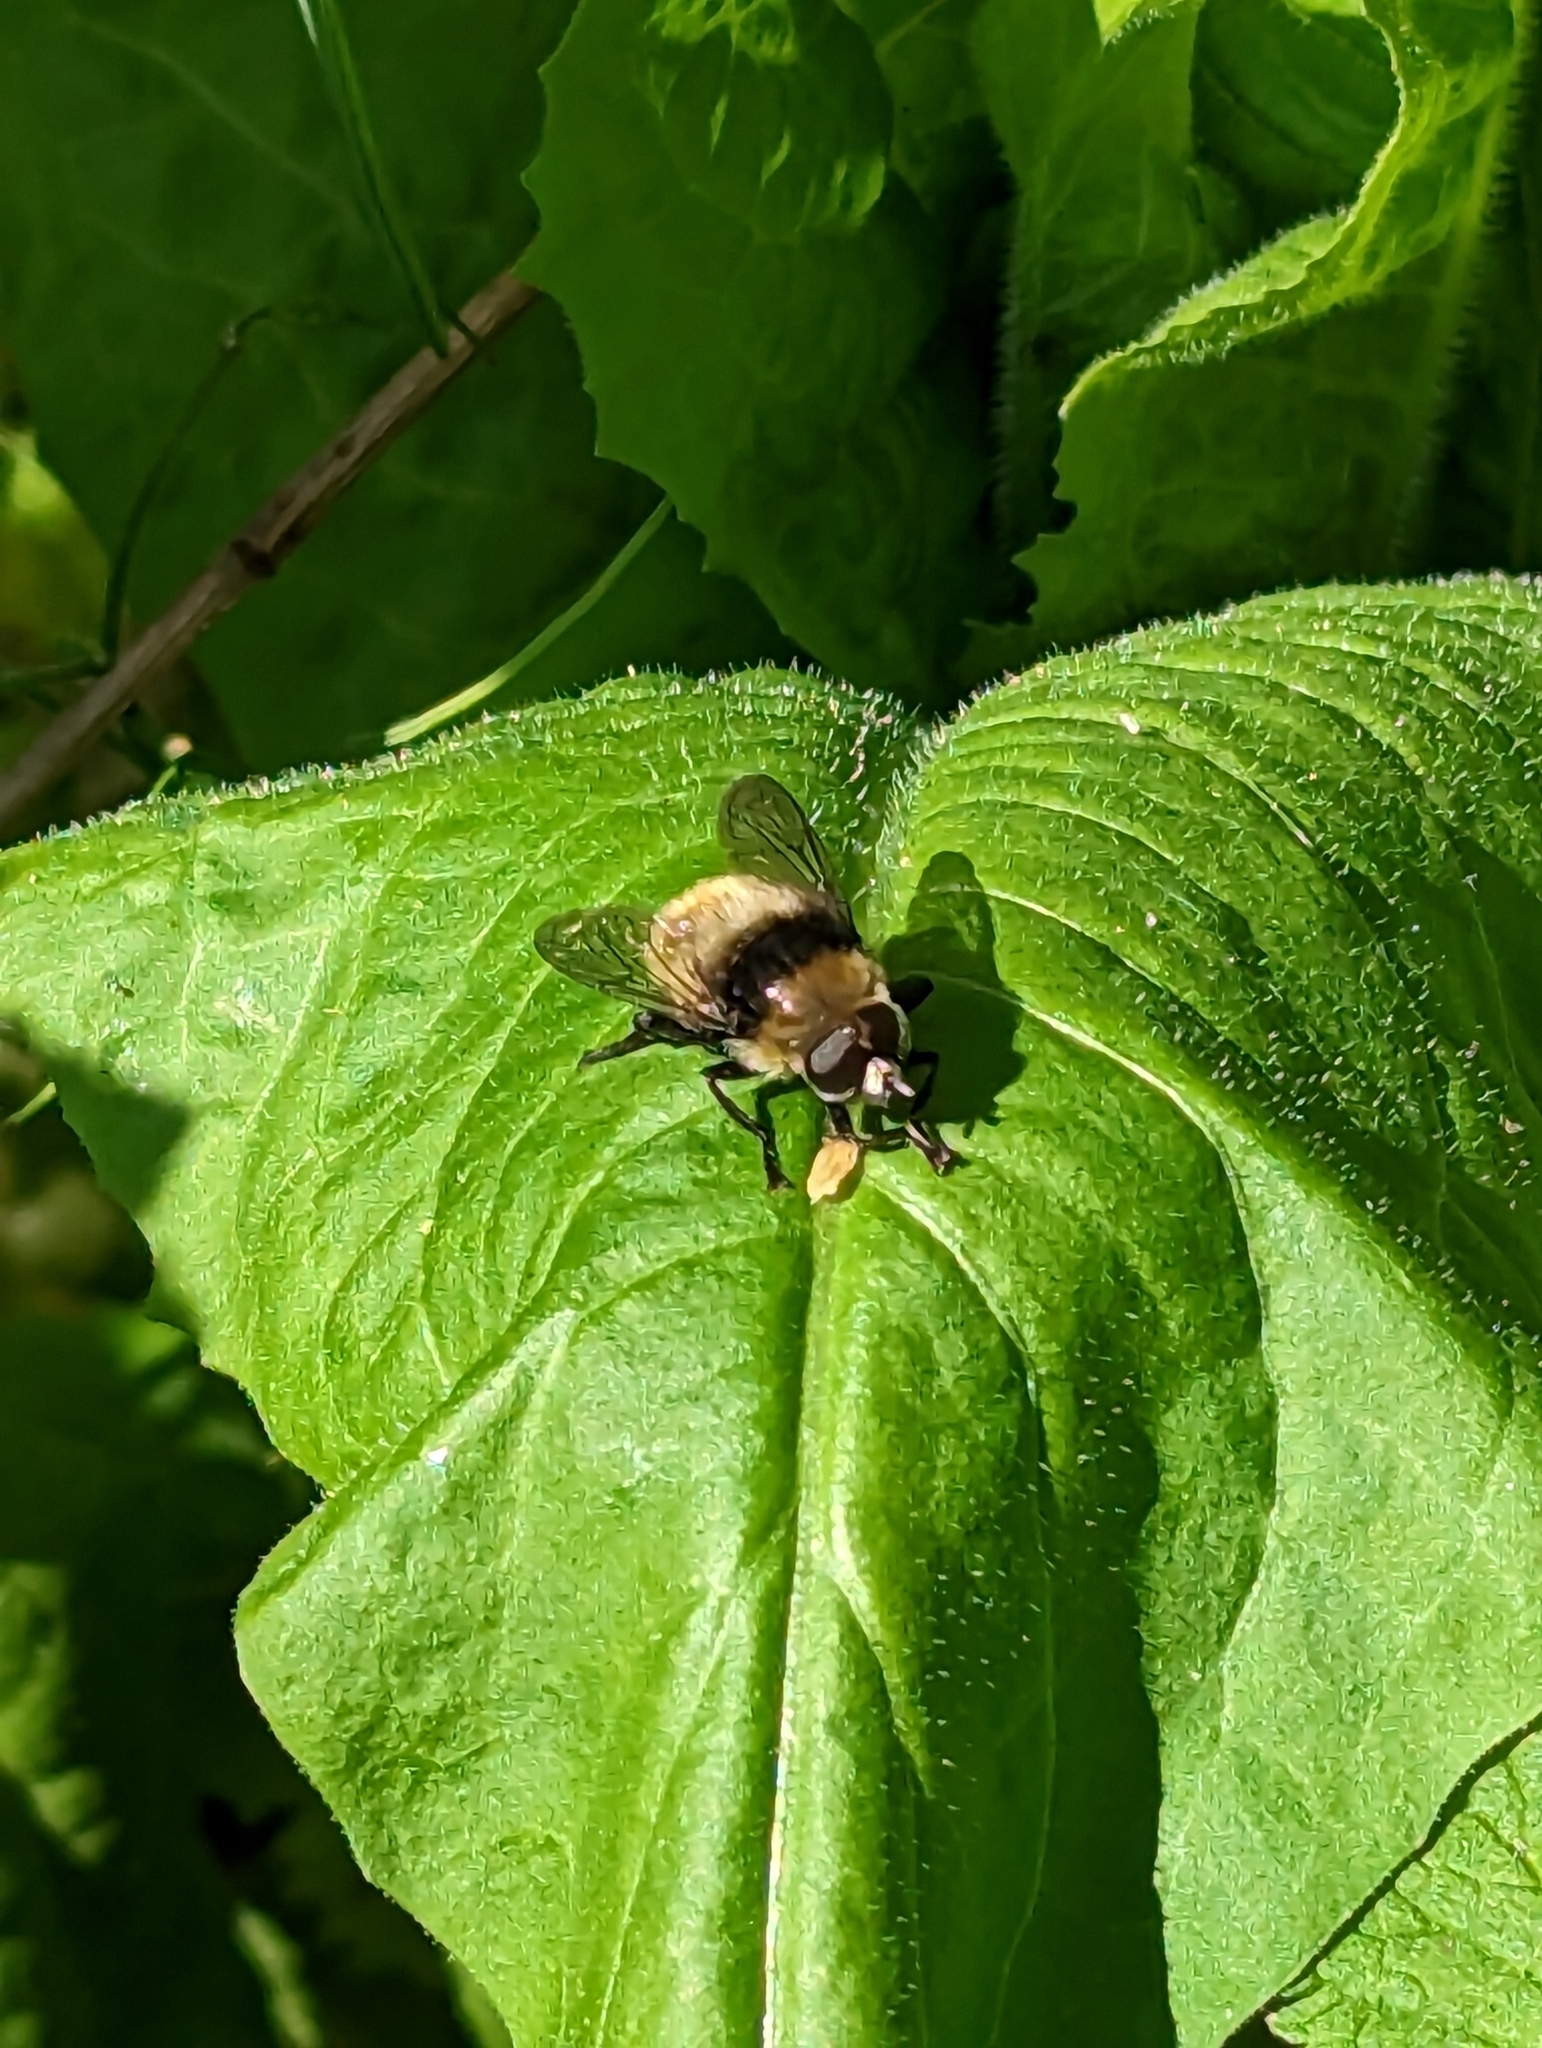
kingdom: Animalia
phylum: Arthropoda
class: Insecta
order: Diptera
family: Syrphidae
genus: Merodon
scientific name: Merodon equestris
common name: Greater bulb-fly
